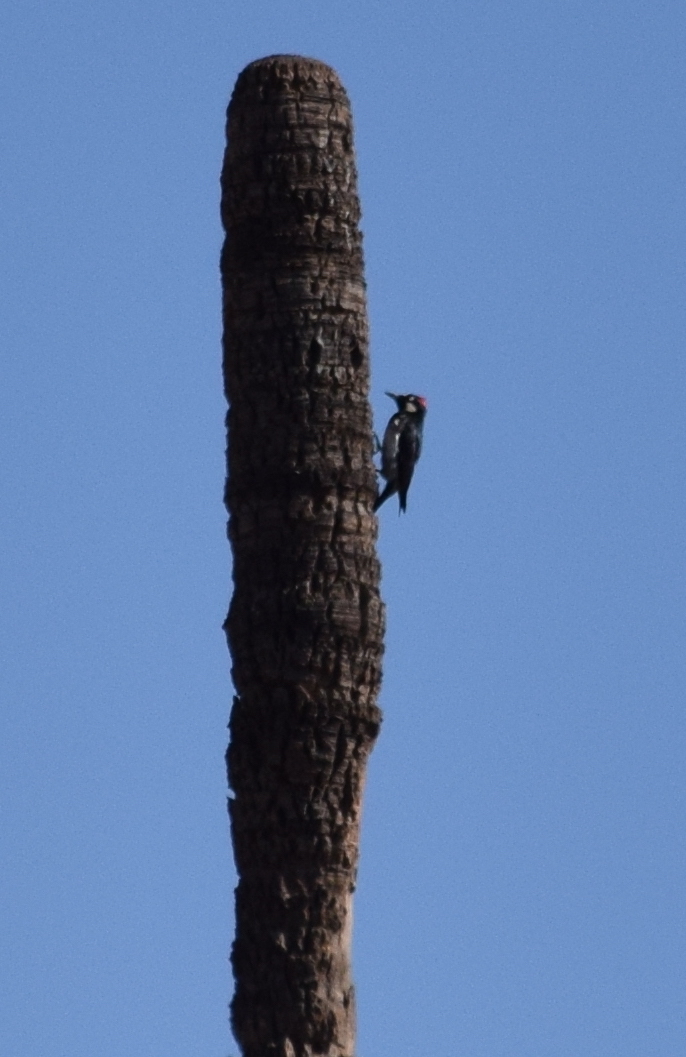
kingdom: Animalia
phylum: Chordata
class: Aves
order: Piciformes
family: Picidae
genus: Melanerpes
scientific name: Melanerpes formicivorus
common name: Acorn woodpecker
